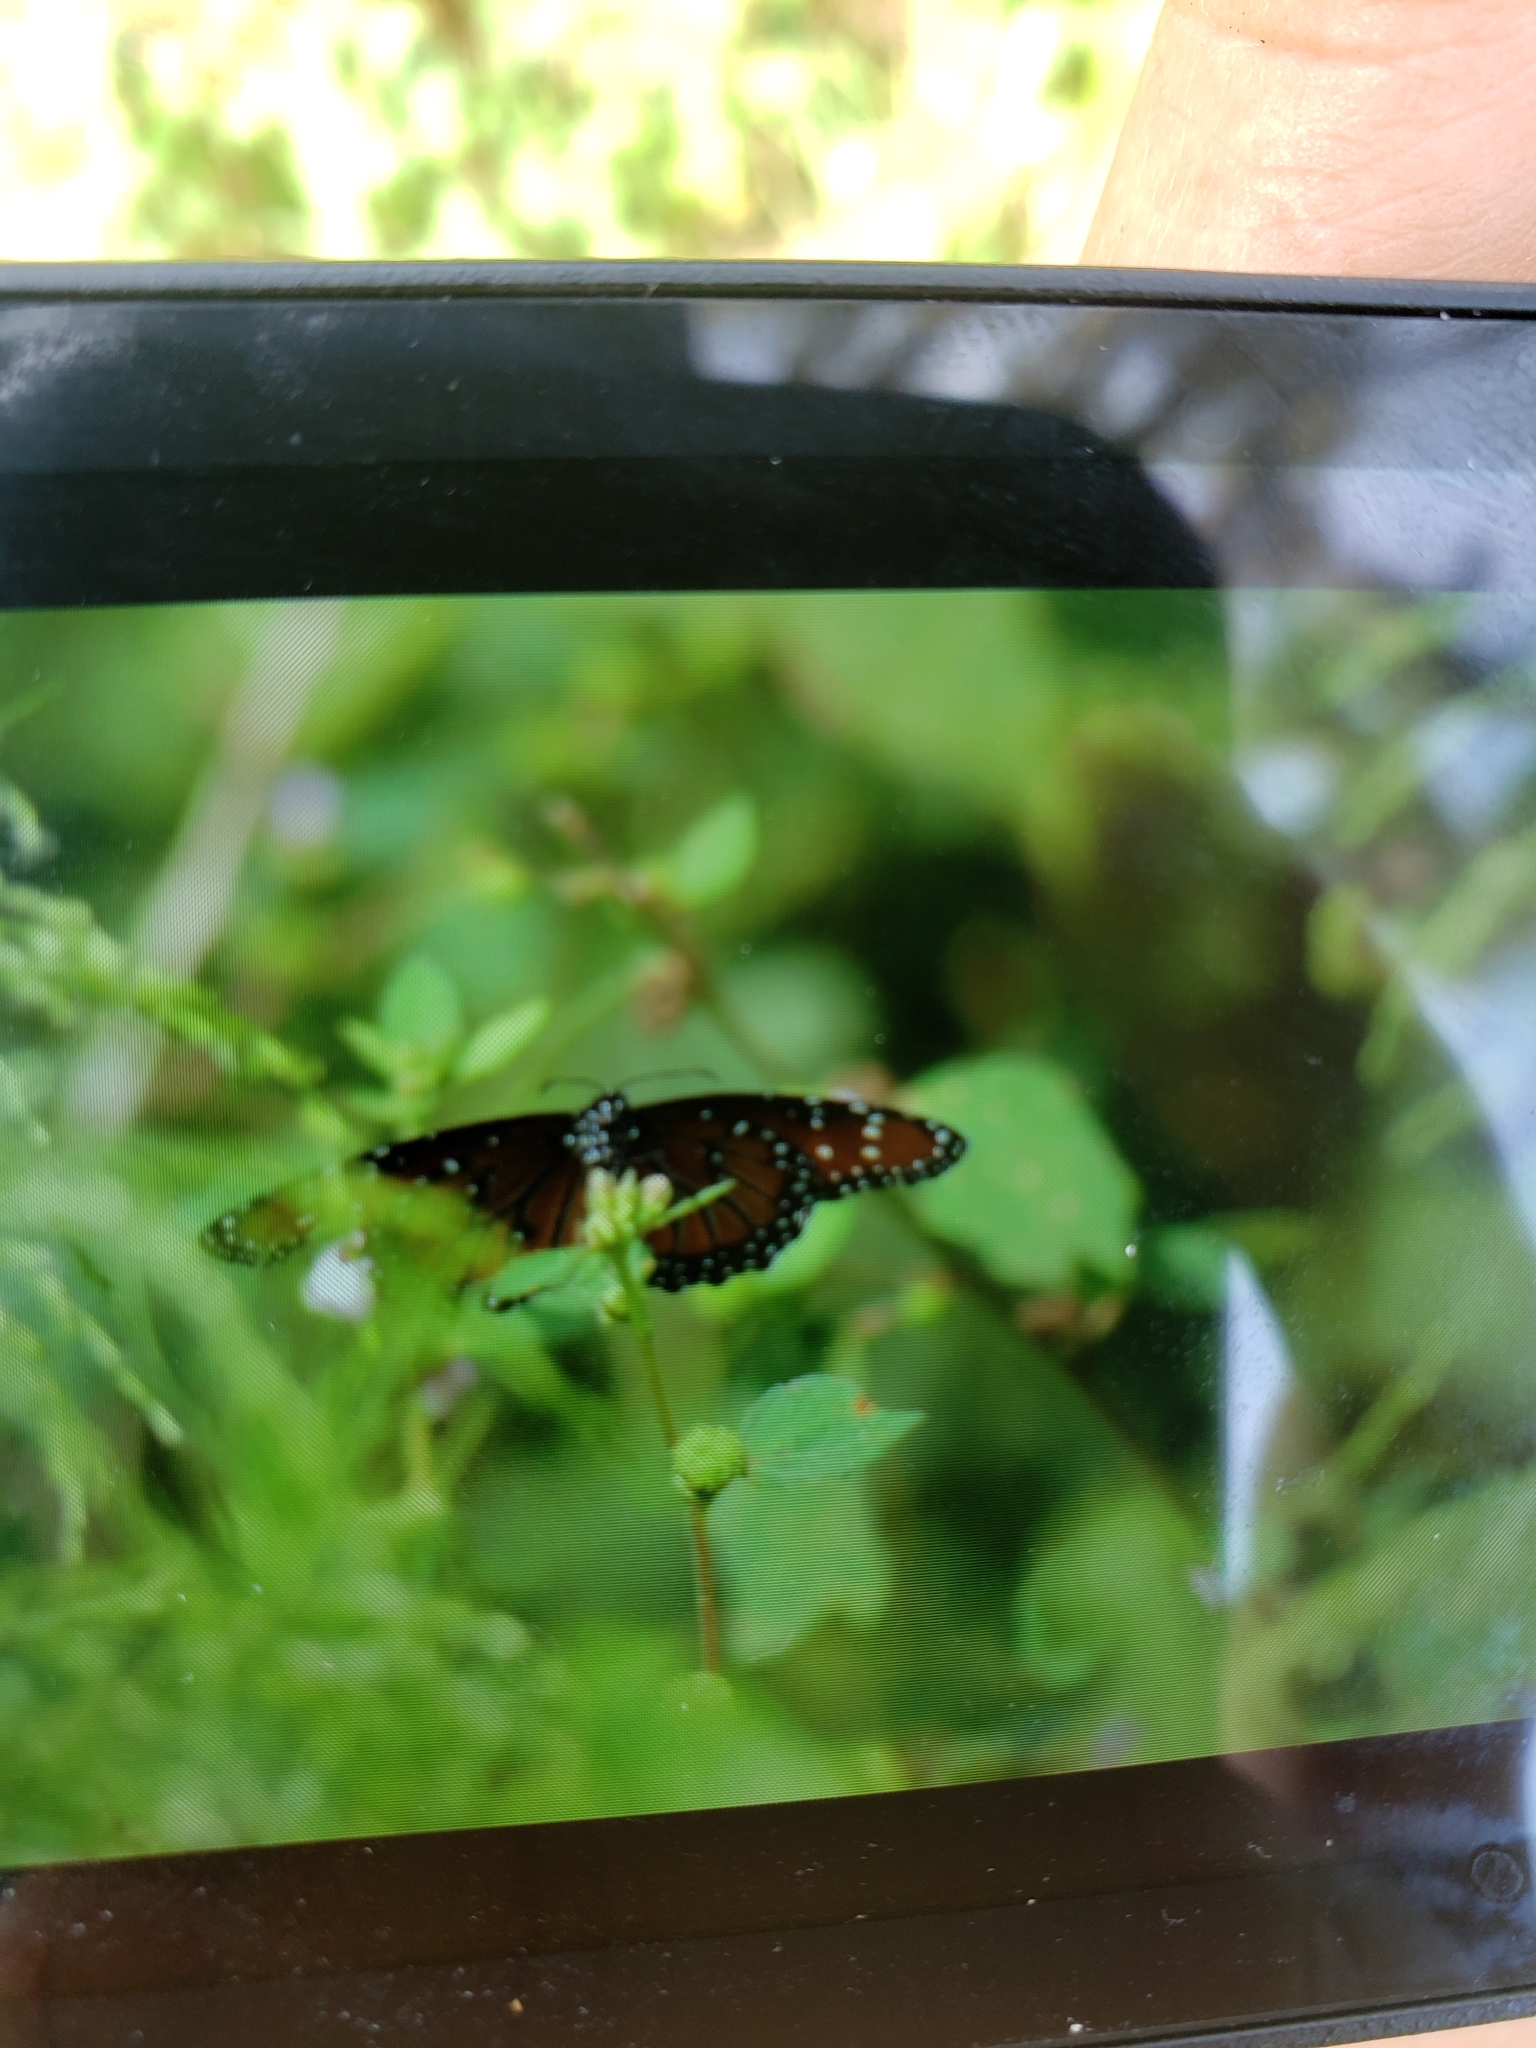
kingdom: Animalia
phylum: Arthropoda
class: Insecta
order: Lepidoptera
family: Nymphalidae
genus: Danaus
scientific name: Danaus gilippus
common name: Queen
